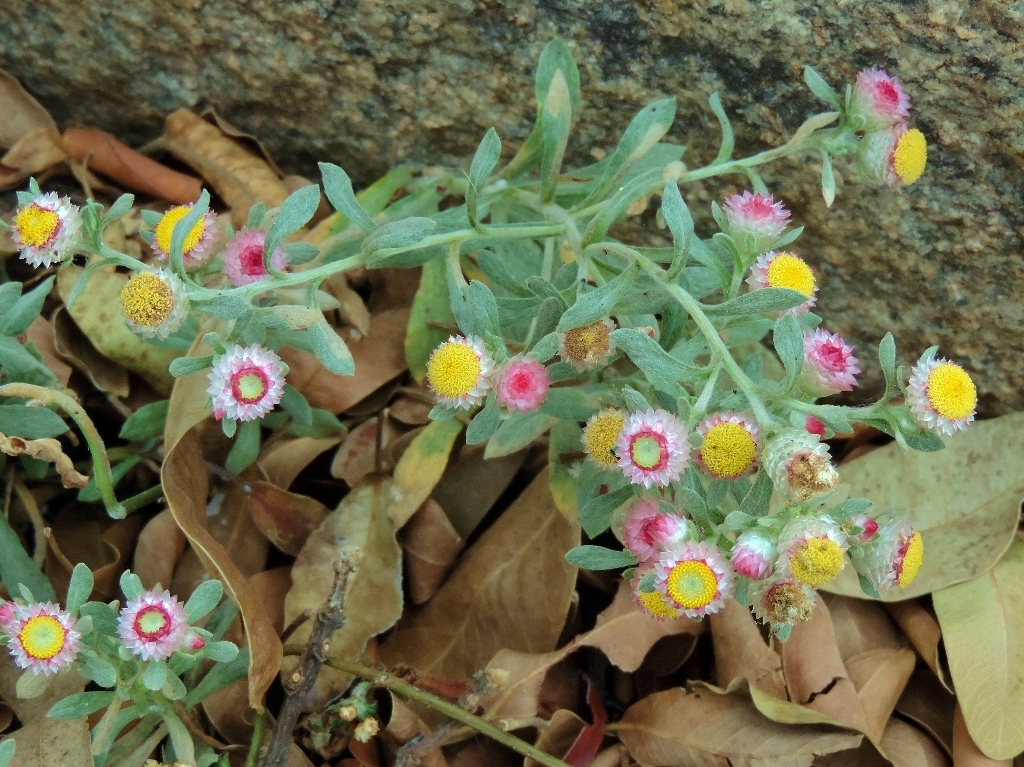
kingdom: Plantae
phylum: Tracheophyta
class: Magnoliopsida
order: Asterales
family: Asteraceae
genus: Helichrysum
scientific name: Helichrysum argyrosphaerum
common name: Wild everlasting
